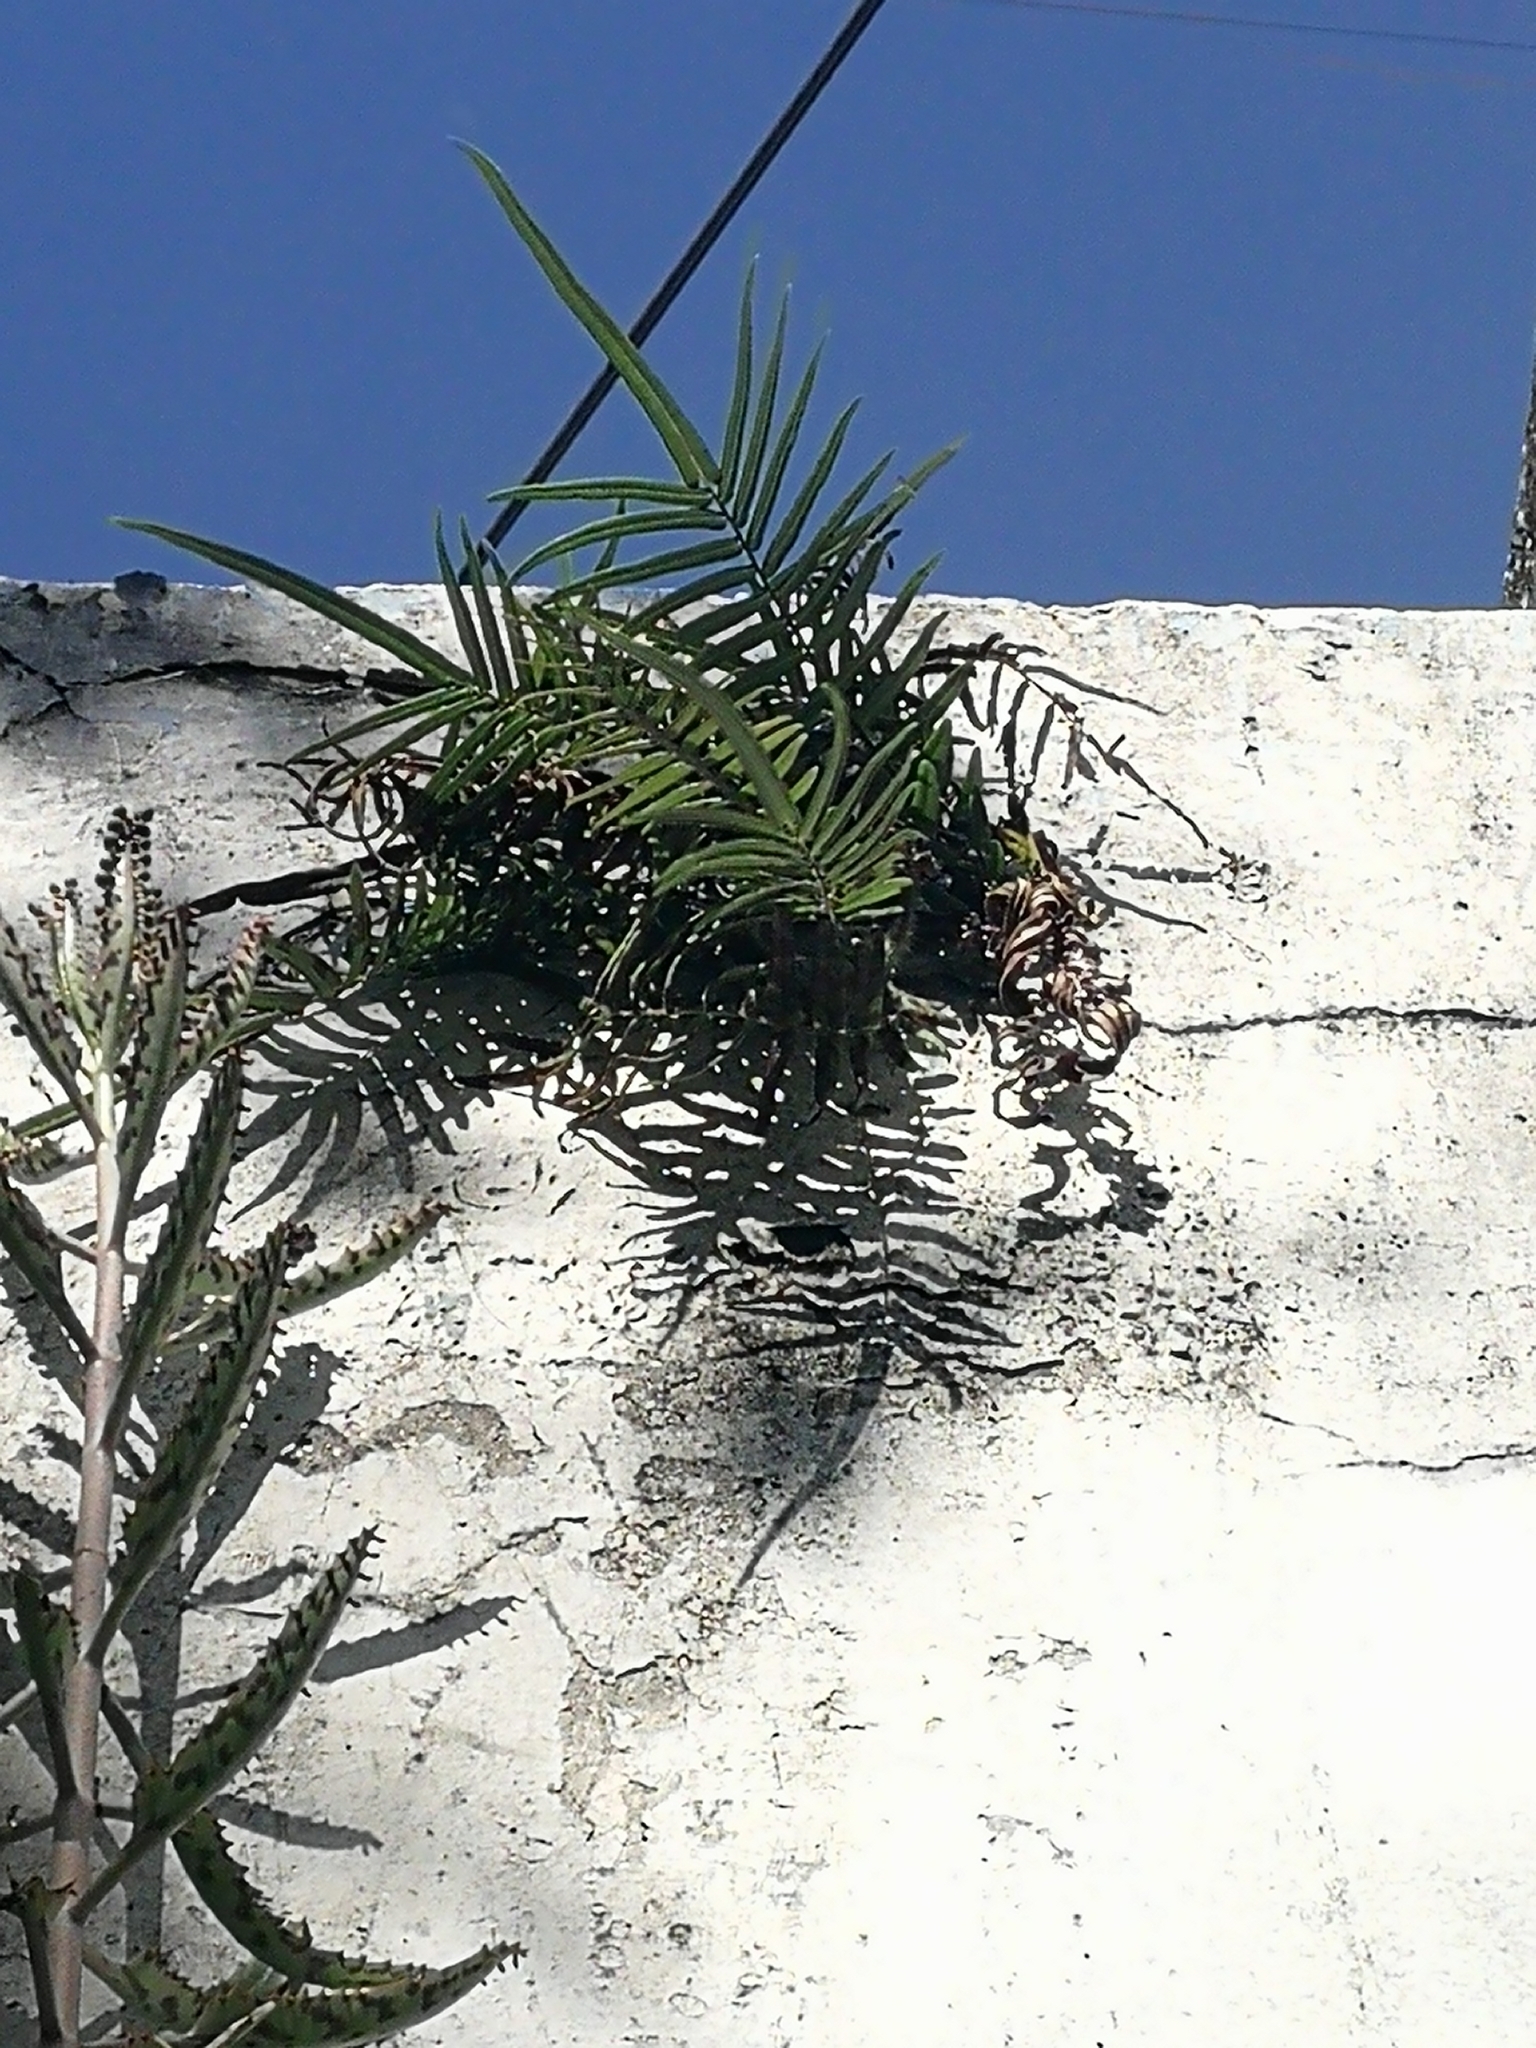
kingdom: Plantae
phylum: Tracheophyta
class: Polypodiopsida
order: Polypodiales
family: Pteridaceae
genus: Pteris
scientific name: Pteris vittata
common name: Ladder brake
